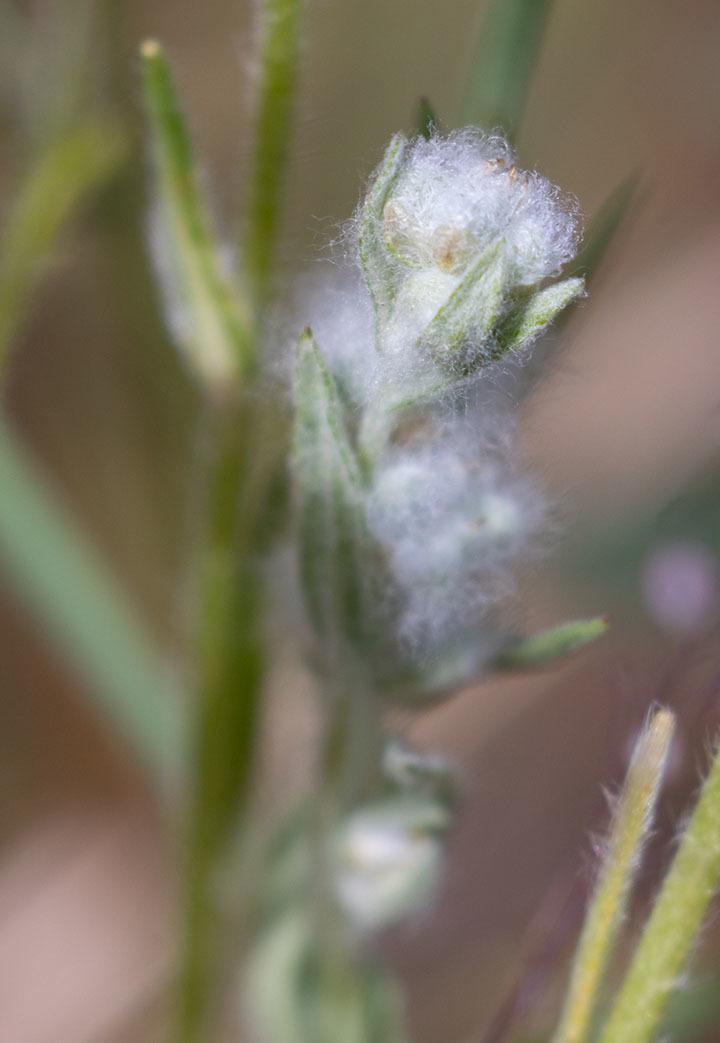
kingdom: Plantae
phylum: Tracheophyta
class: Magnoliopsida
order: Asterales
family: Asteraceae
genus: Bombycilaena
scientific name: Bombycilaena californica
